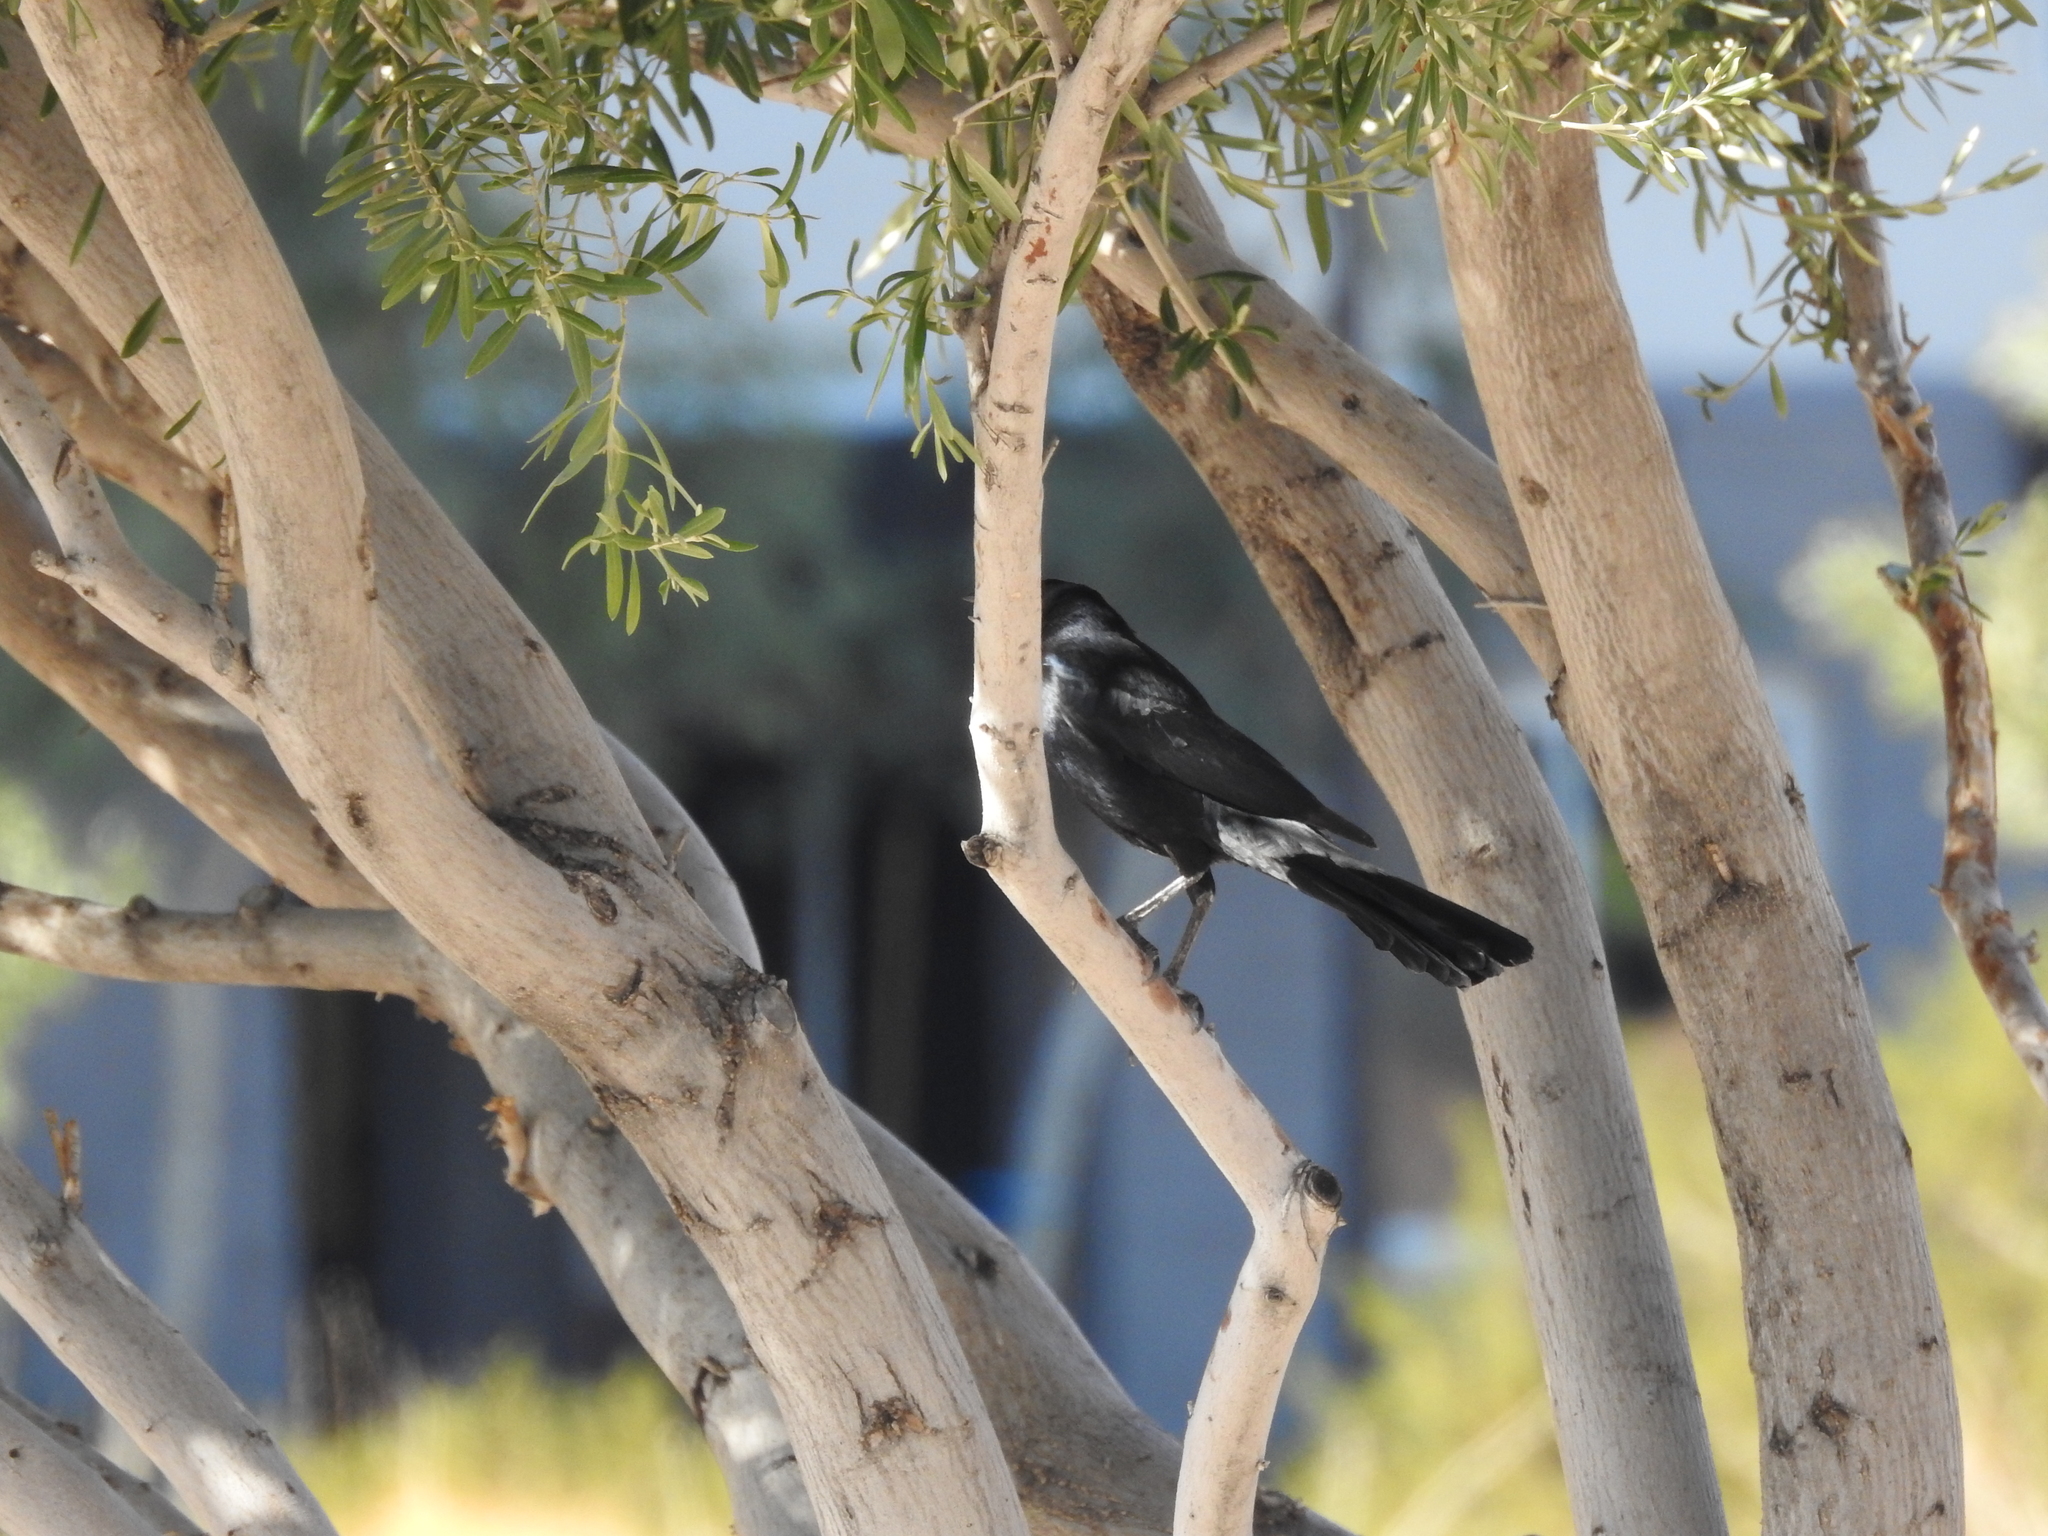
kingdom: Animalia
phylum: Chordata
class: Aves
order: Passeriformes
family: Icteridae
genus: Quiscalus
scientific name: Quiscalus mexicanus
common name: Great-tailed grackle
